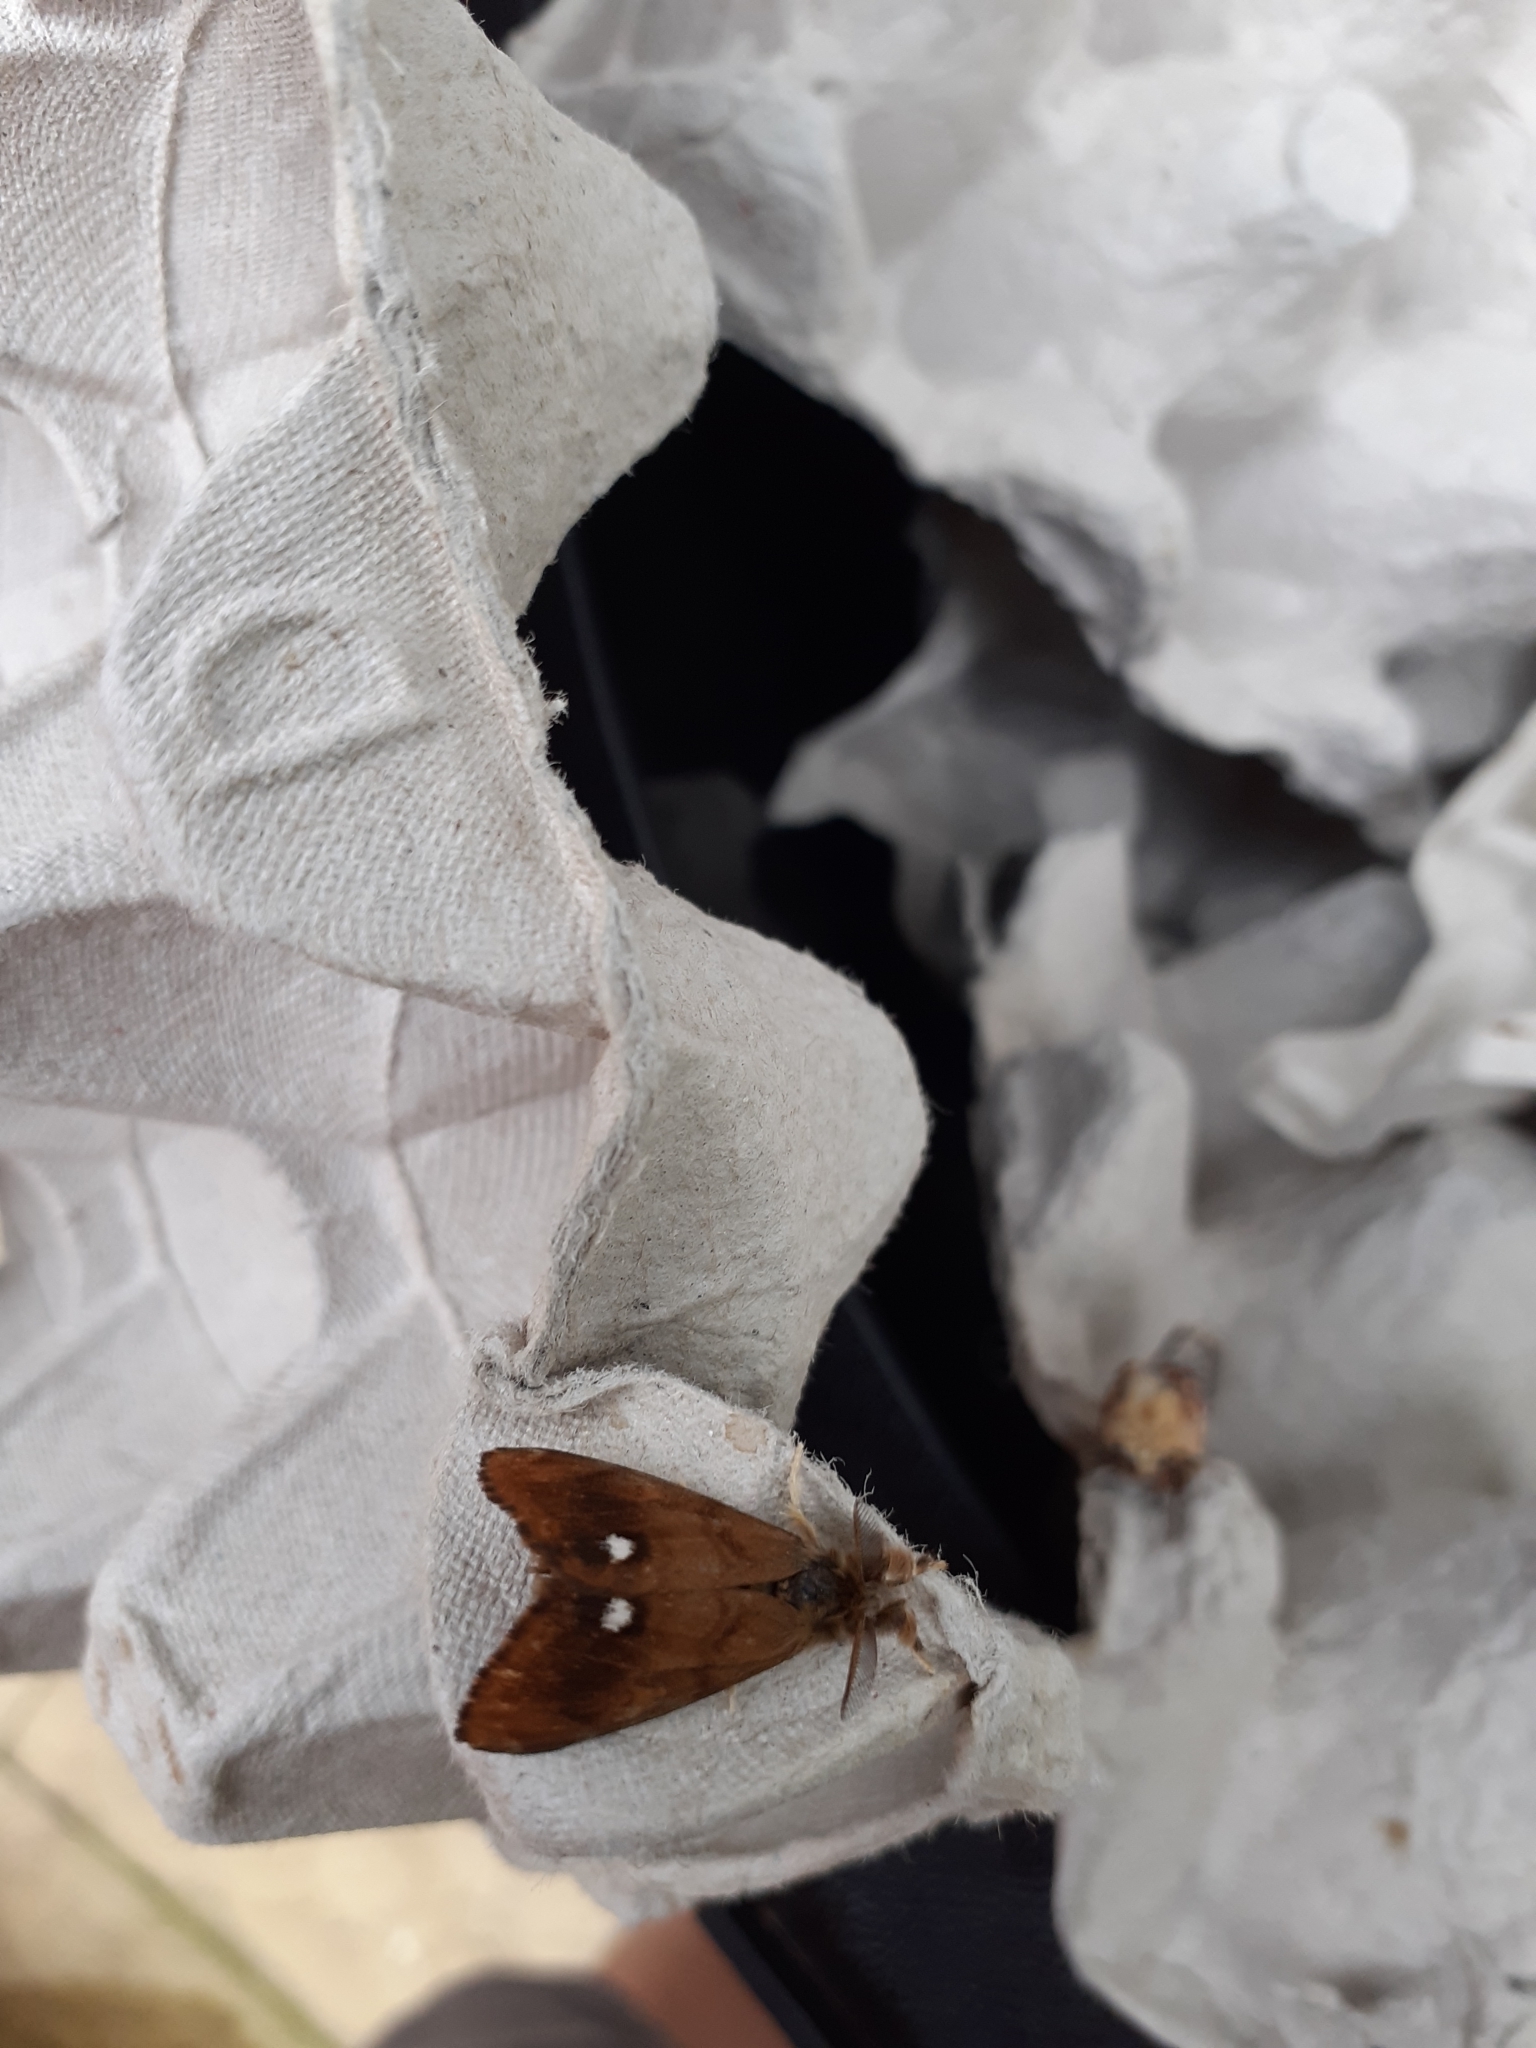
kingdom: Animalia
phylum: Arthropoda
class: Insecta
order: Lepidoptera
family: Erebidae
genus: Orgyia
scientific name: Orgyia antiqua
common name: Vapourer
